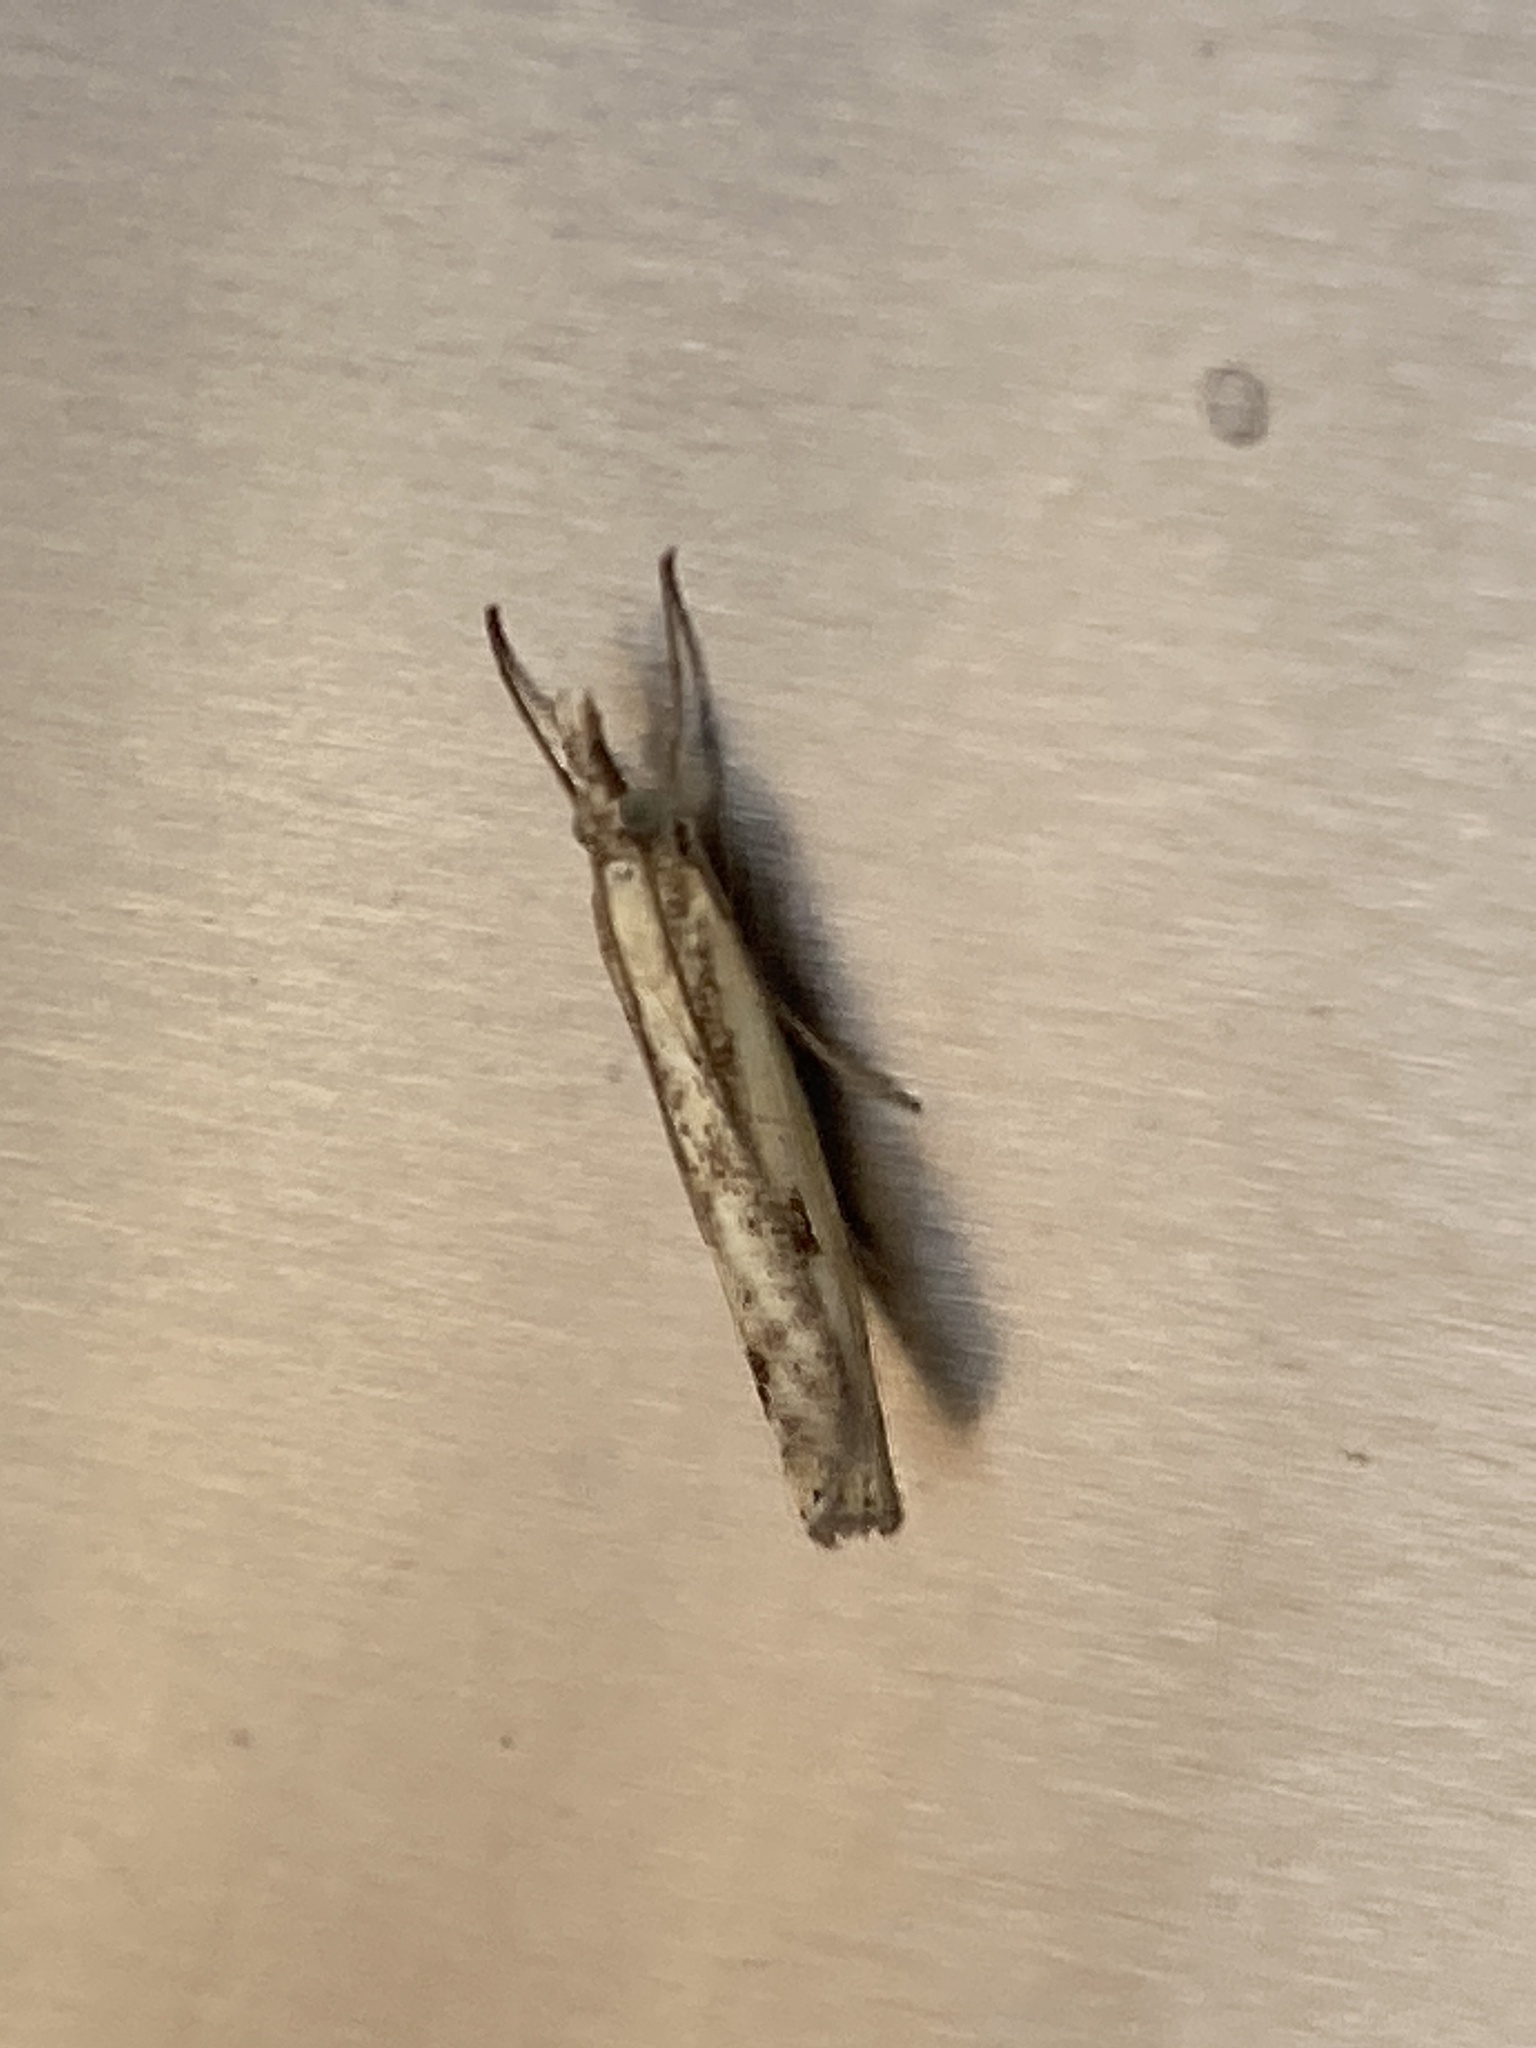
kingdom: Animalia
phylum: Arthropoda
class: Insecta
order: Lepidoptera
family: Crambidae
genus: Agriphila
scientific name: Agriphila inquinatella
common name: Barred grass-veneer
